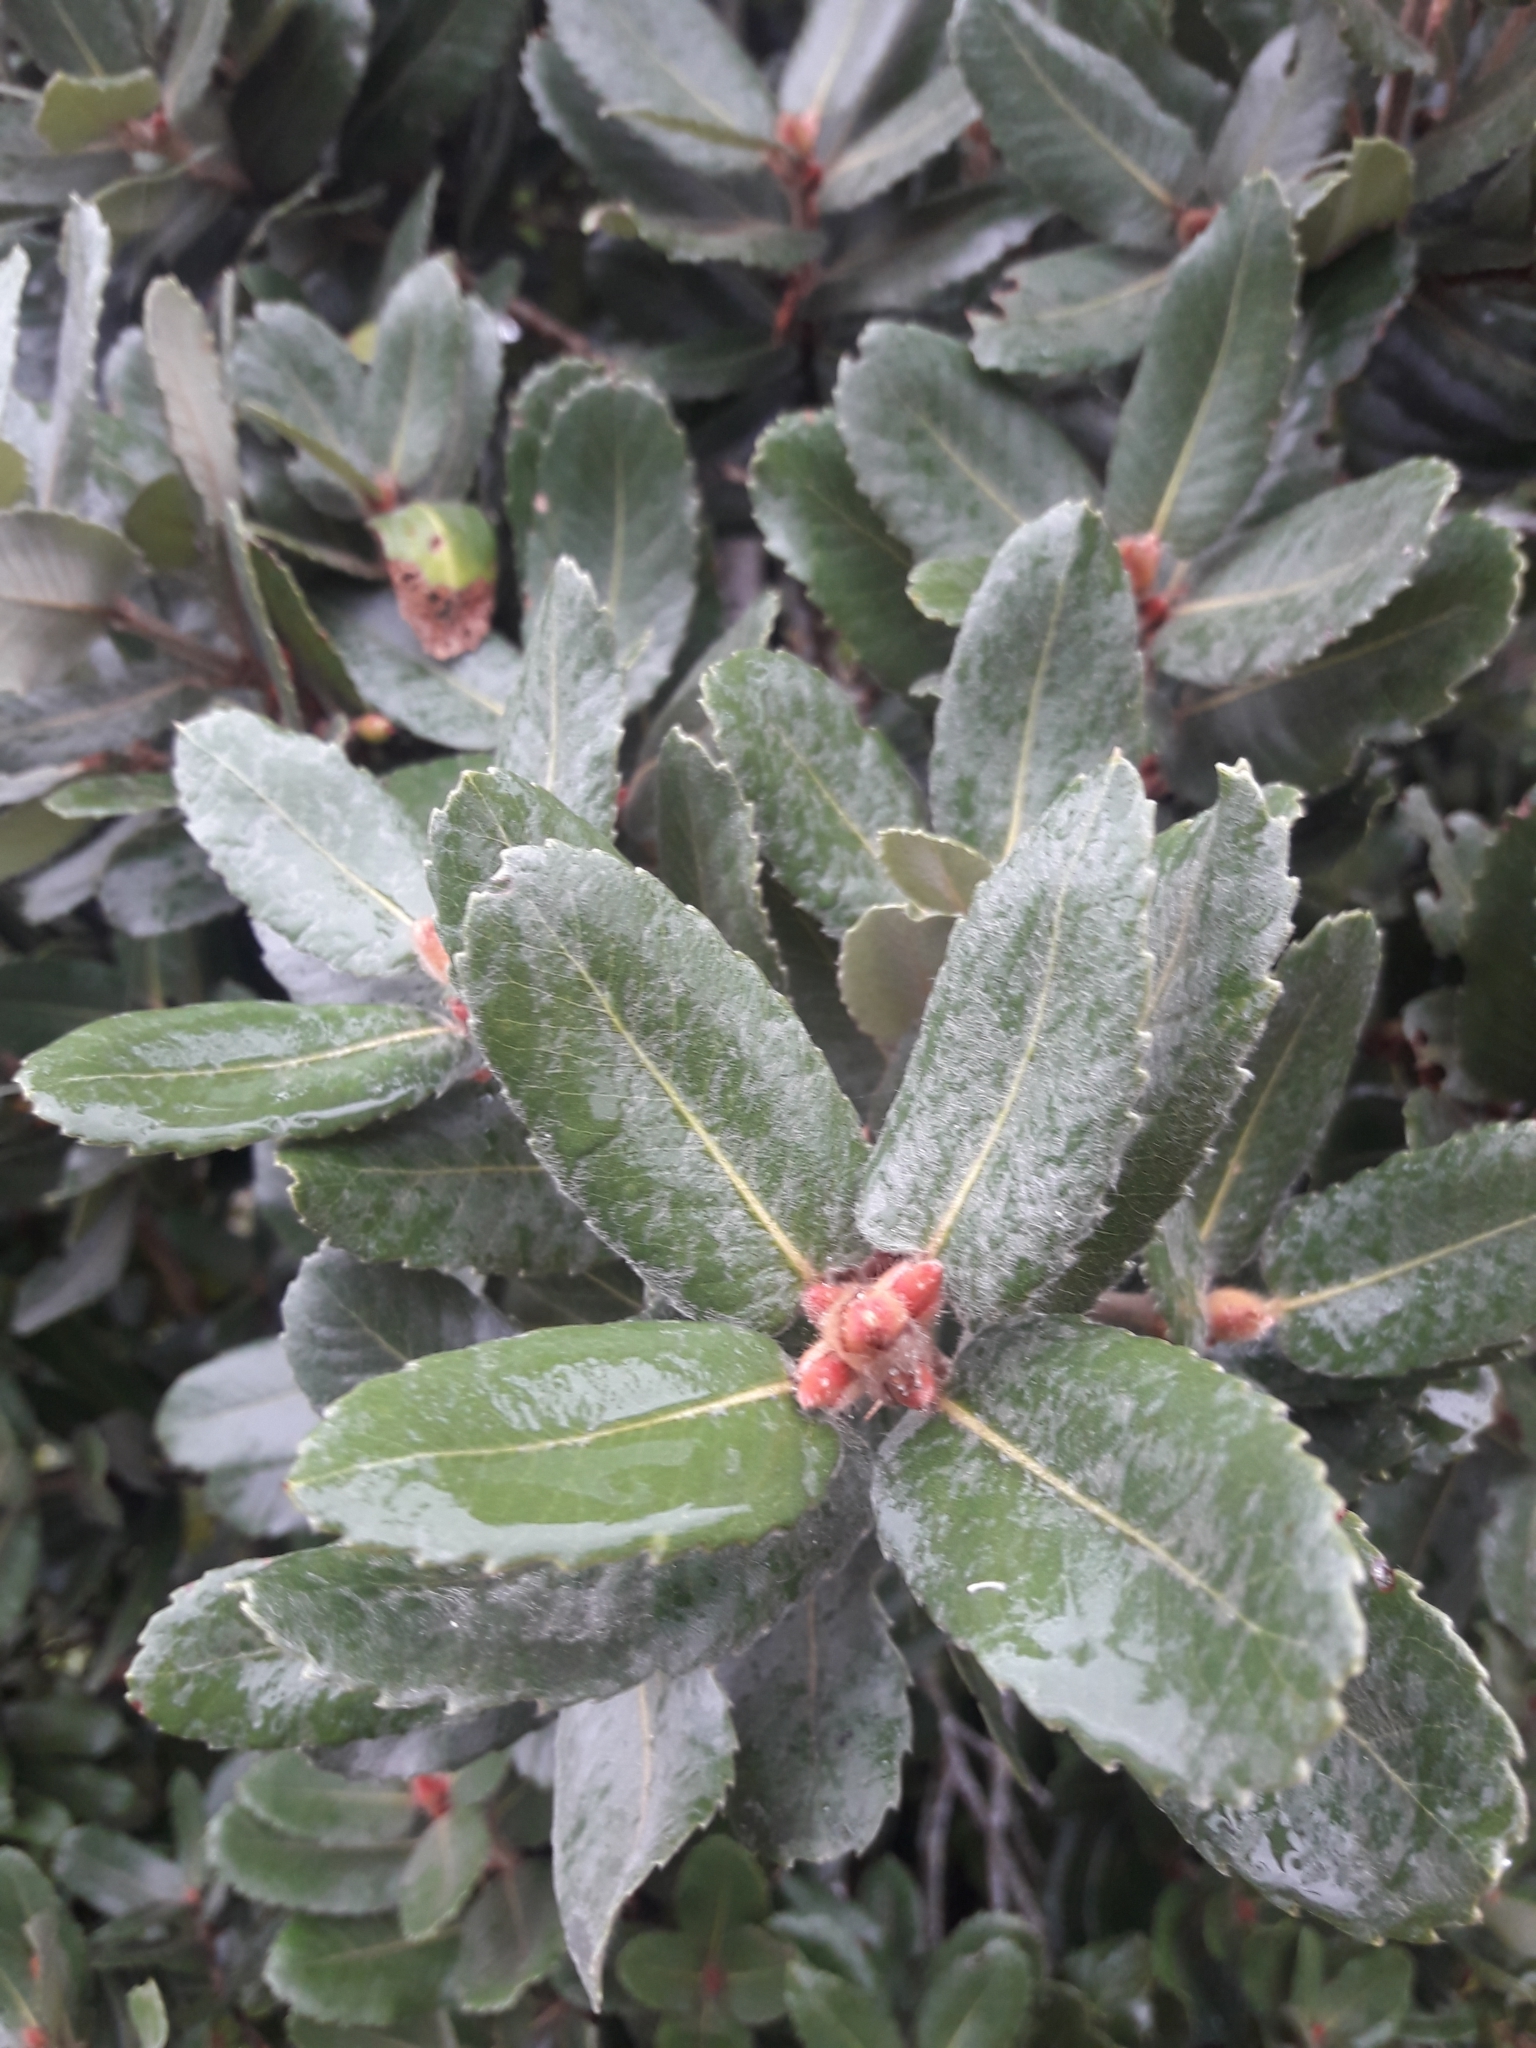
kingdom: Plantae
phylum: Tracheophyta
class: Magnoliopsida
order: Oxalidales
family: Cunoniaceae
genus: Eucryphia
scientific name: Eucryphia cordifolia
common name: Ulmo
